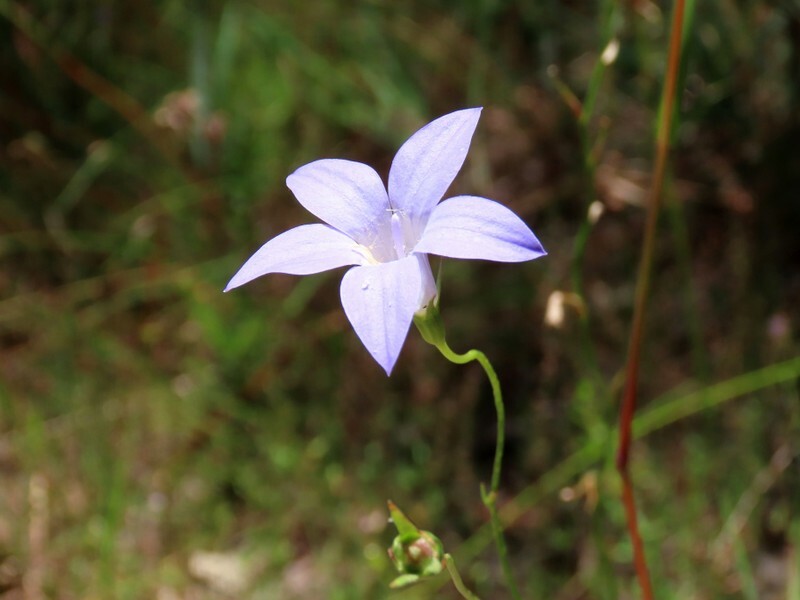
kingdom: Plantae
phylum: Tracheophyta
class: Magnoliopsida
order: Asterales
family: Campanulaceae
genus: Wahlenbergia
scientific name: Wahlenbergia stricta
